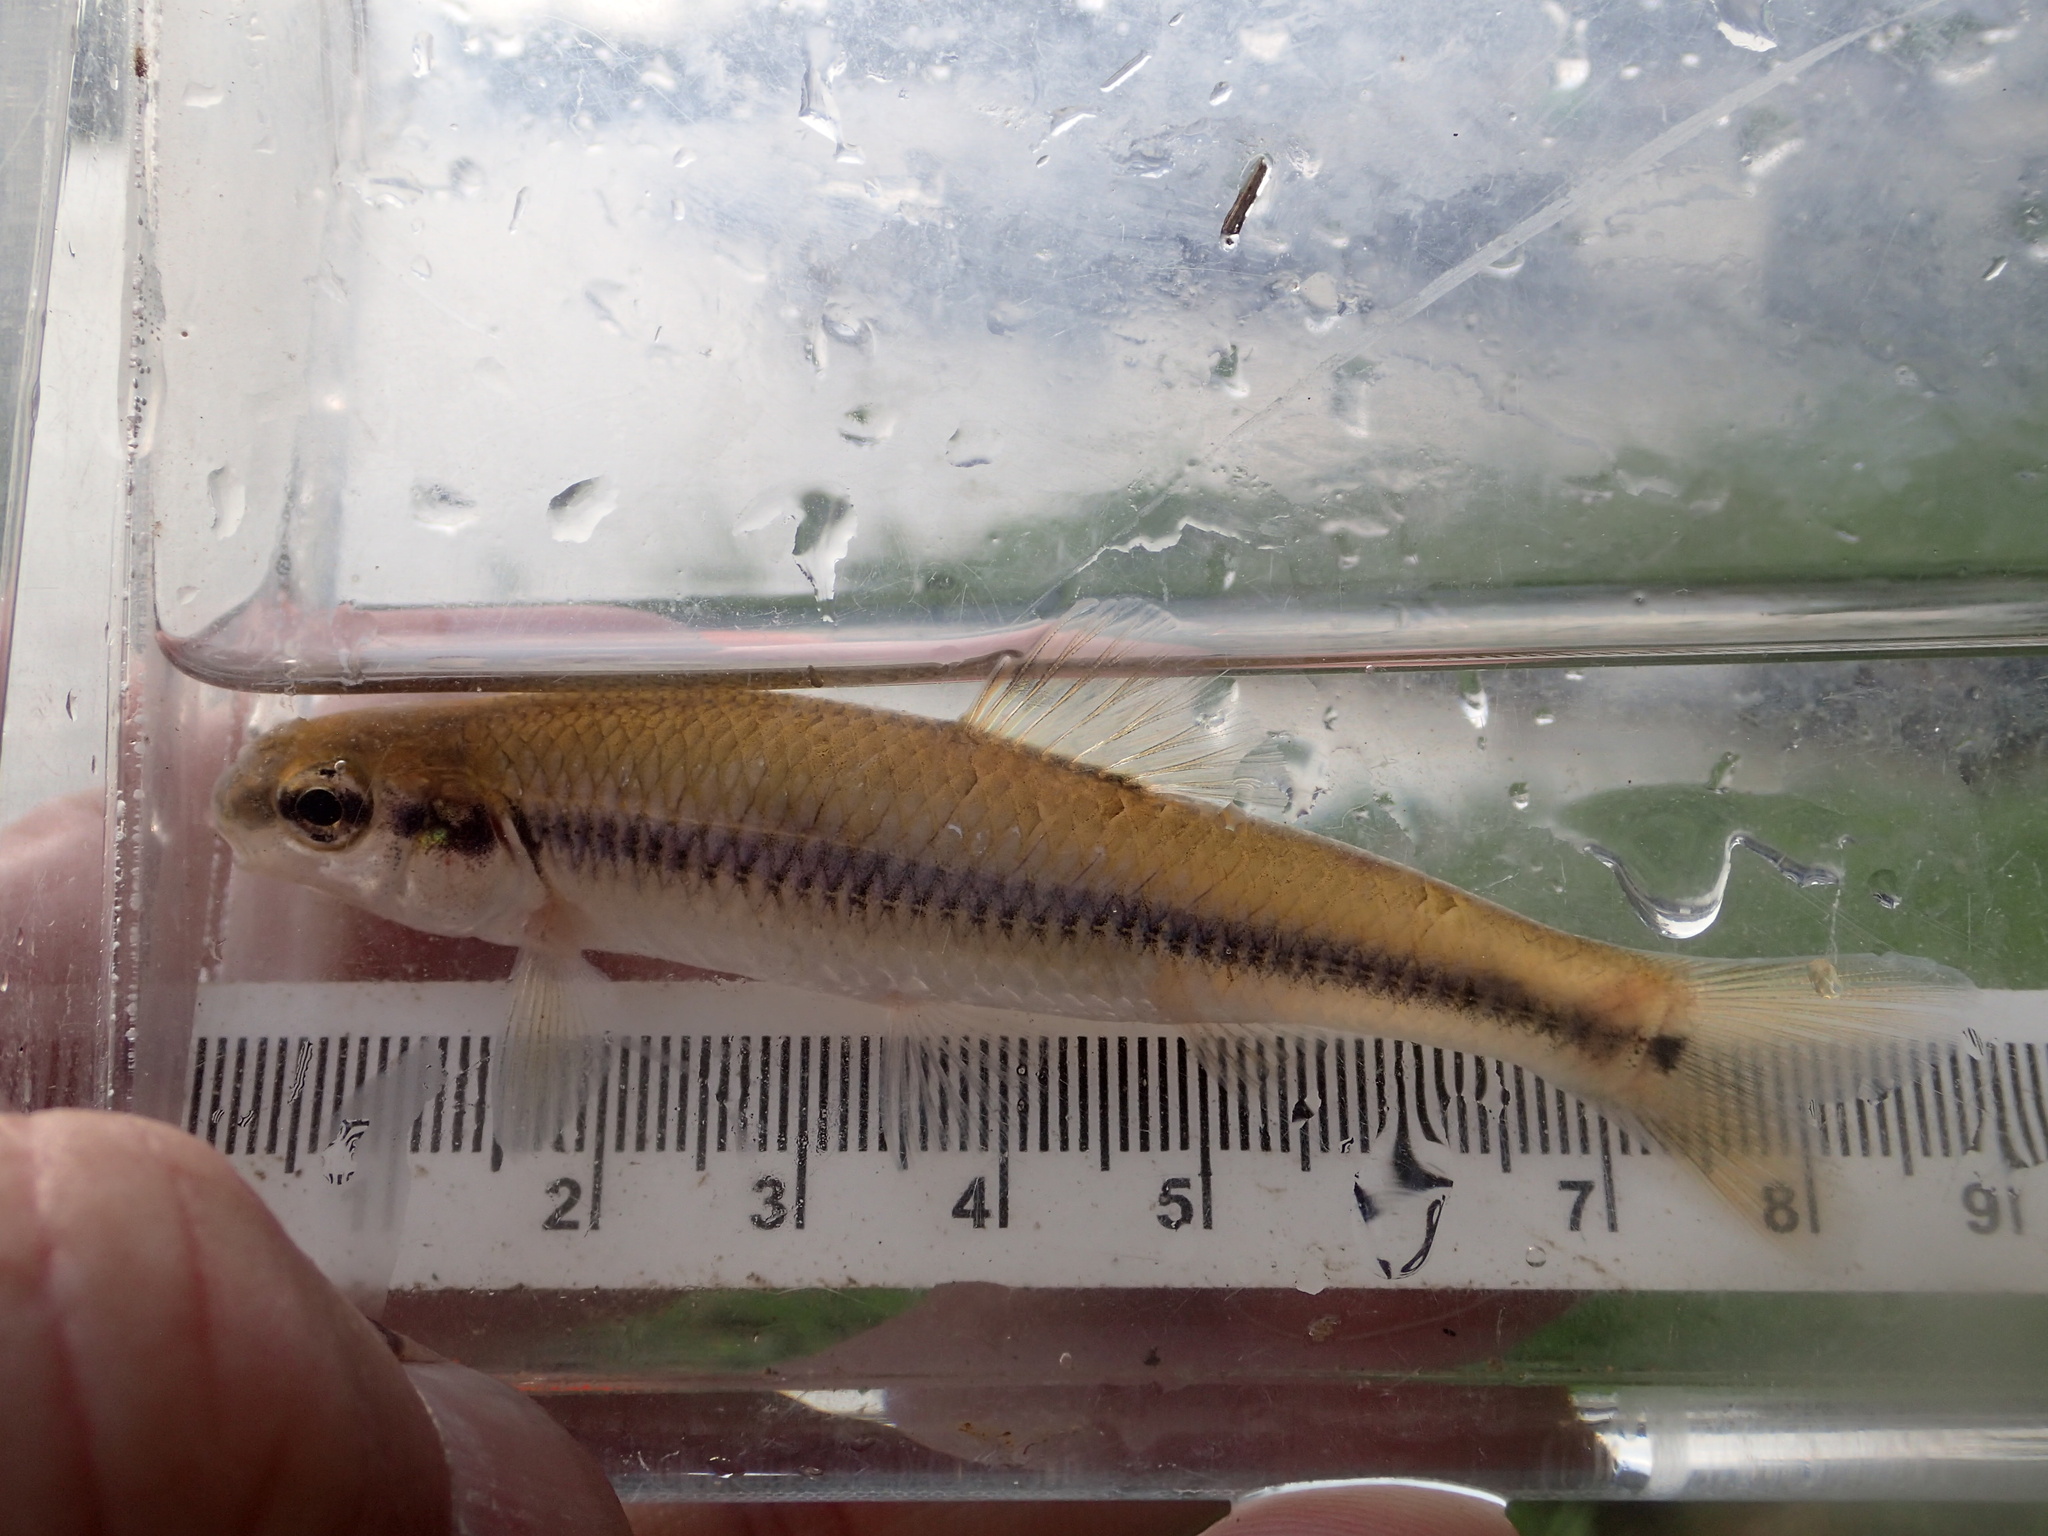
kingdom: Animalia
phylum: Chordata
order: Cypriniformes
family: Cyprinidae
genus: Pimephales
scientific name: Pimephales notatus
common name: Bluntnose minnow
